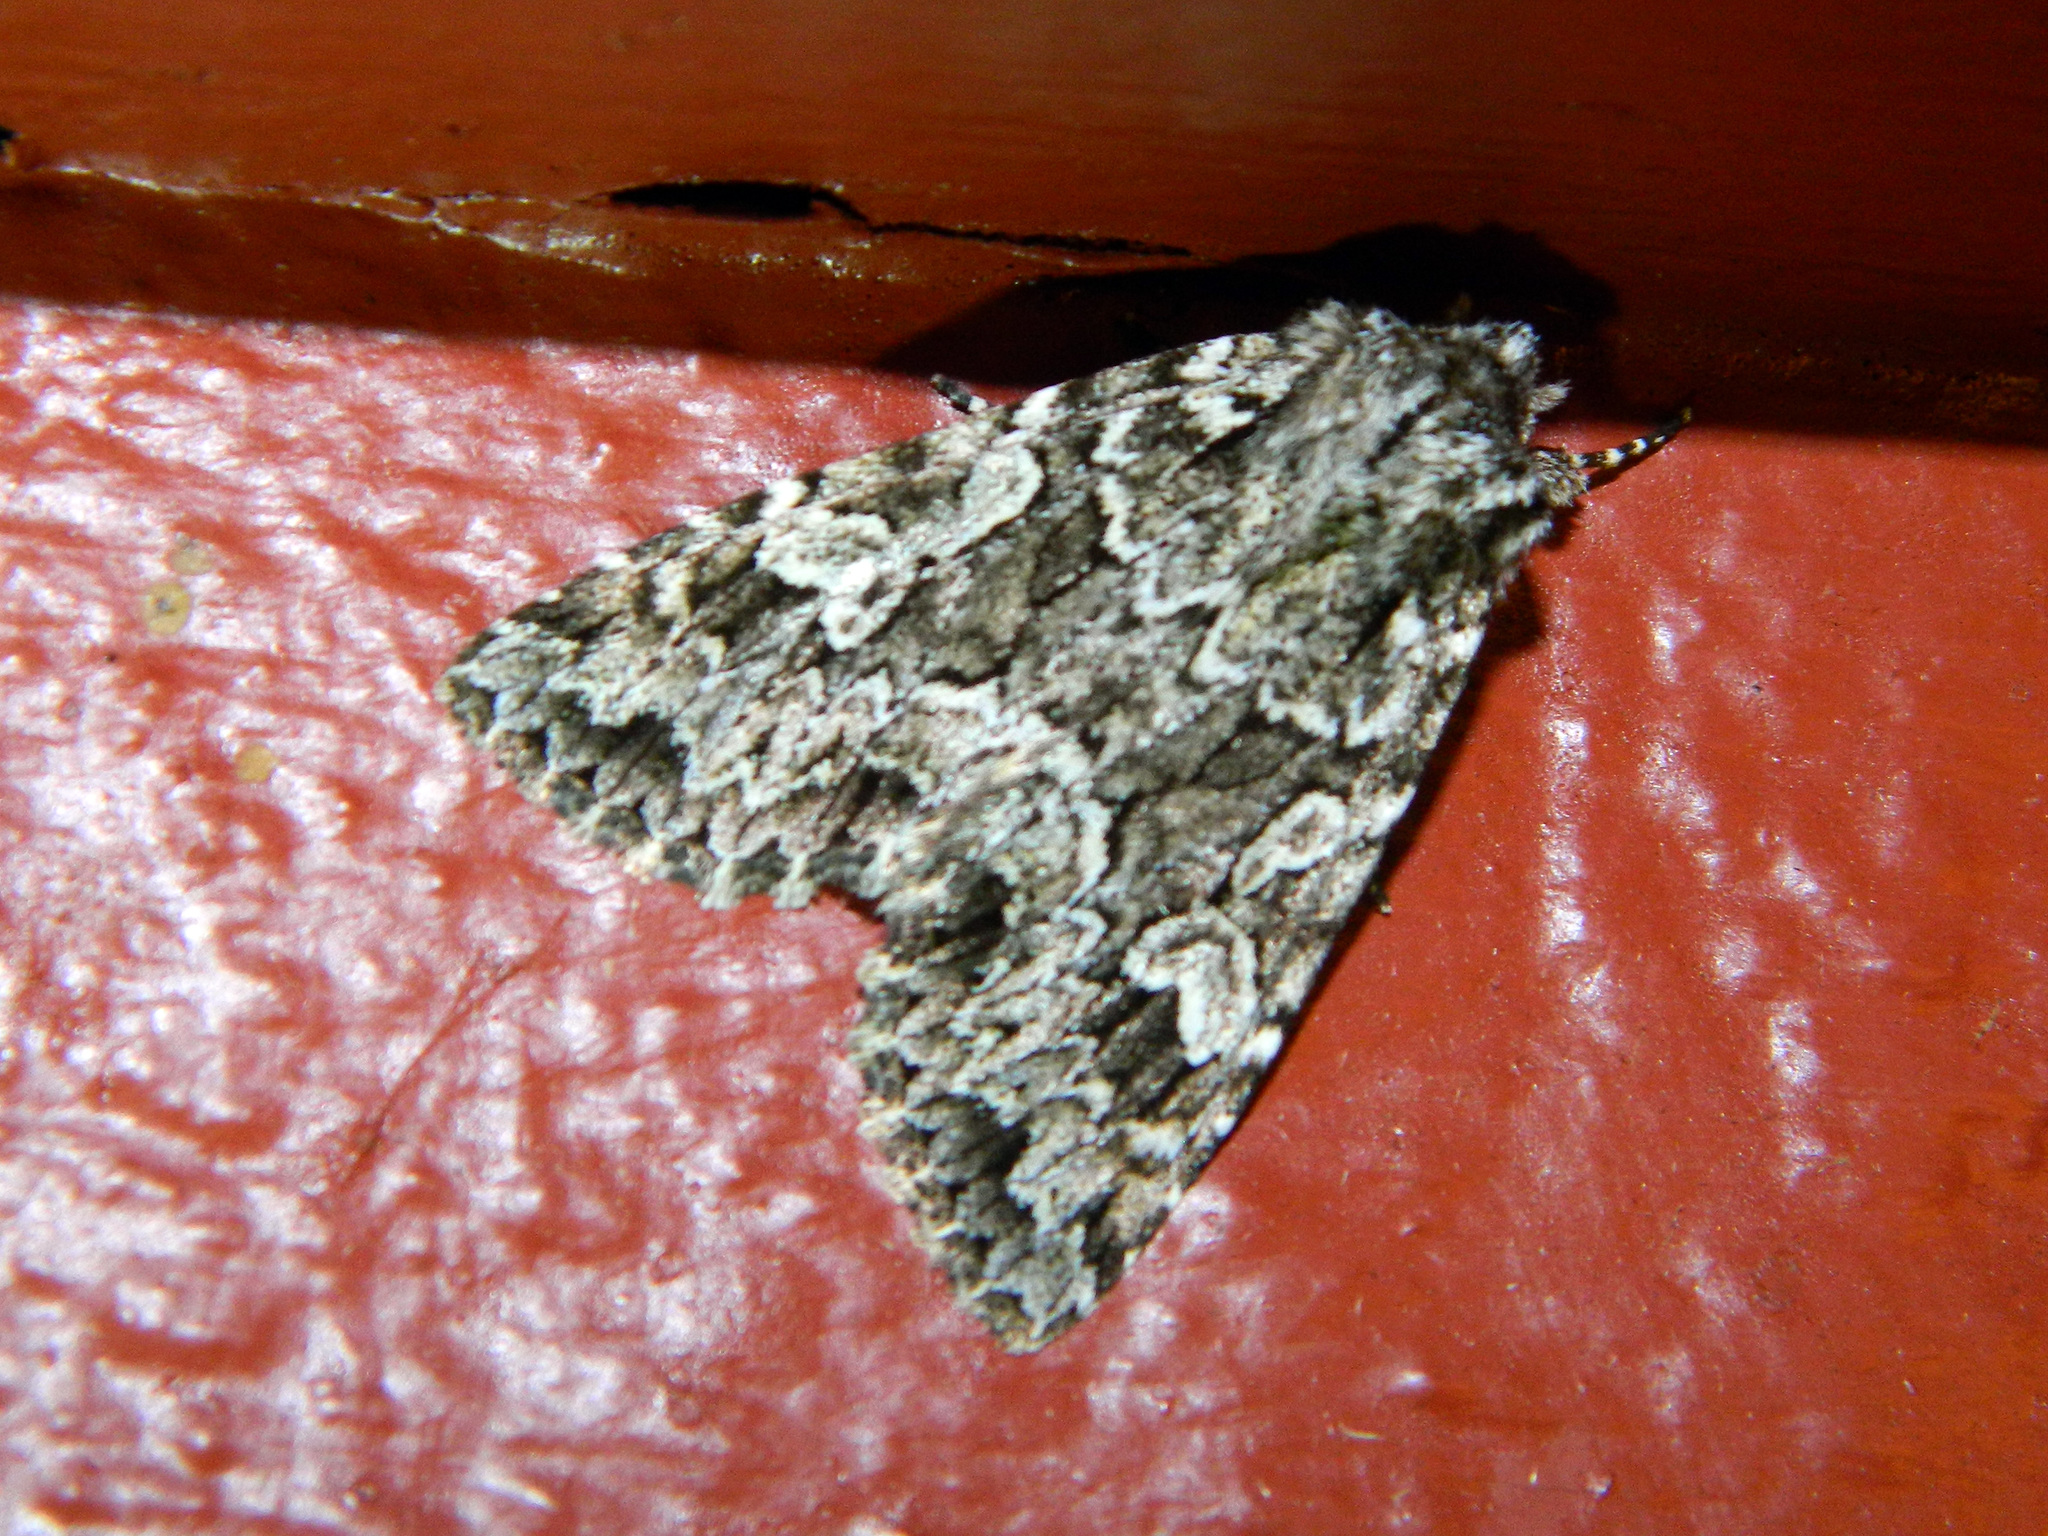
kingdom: Animalia
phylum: Arthropoda
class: Insecta
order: Lepidoptera
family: Noctuidae
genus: Platypolia
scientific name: Platypolia anceps
